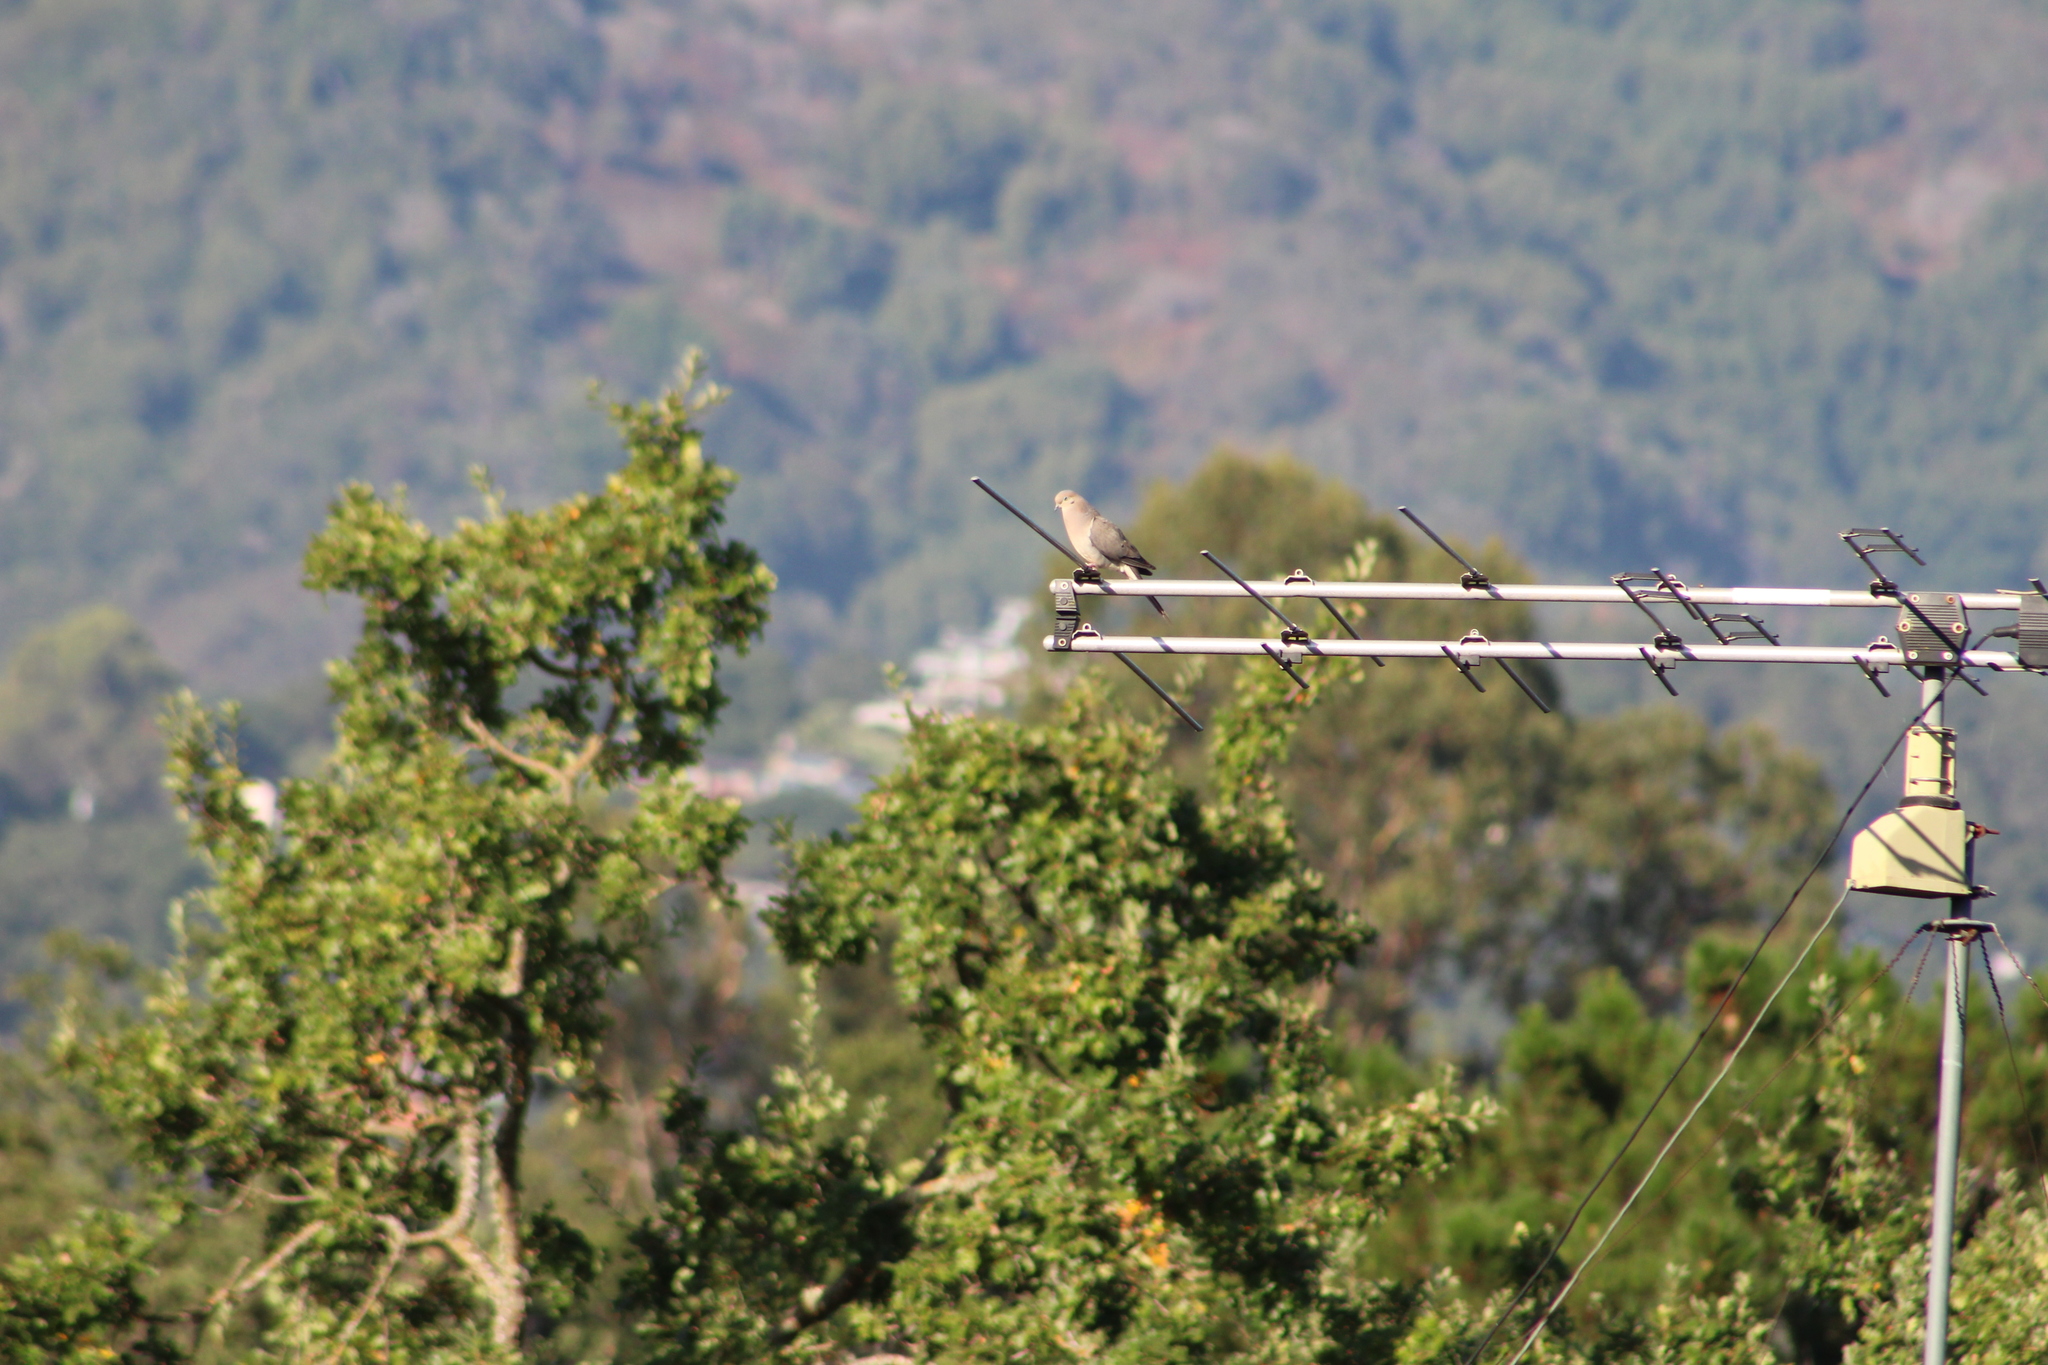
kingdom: Animalia
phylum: Chordata
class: Aves
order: Columbiformes
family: Columbidae
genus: Zenaida
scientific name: Zenaida macroura
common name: Mourning dove
